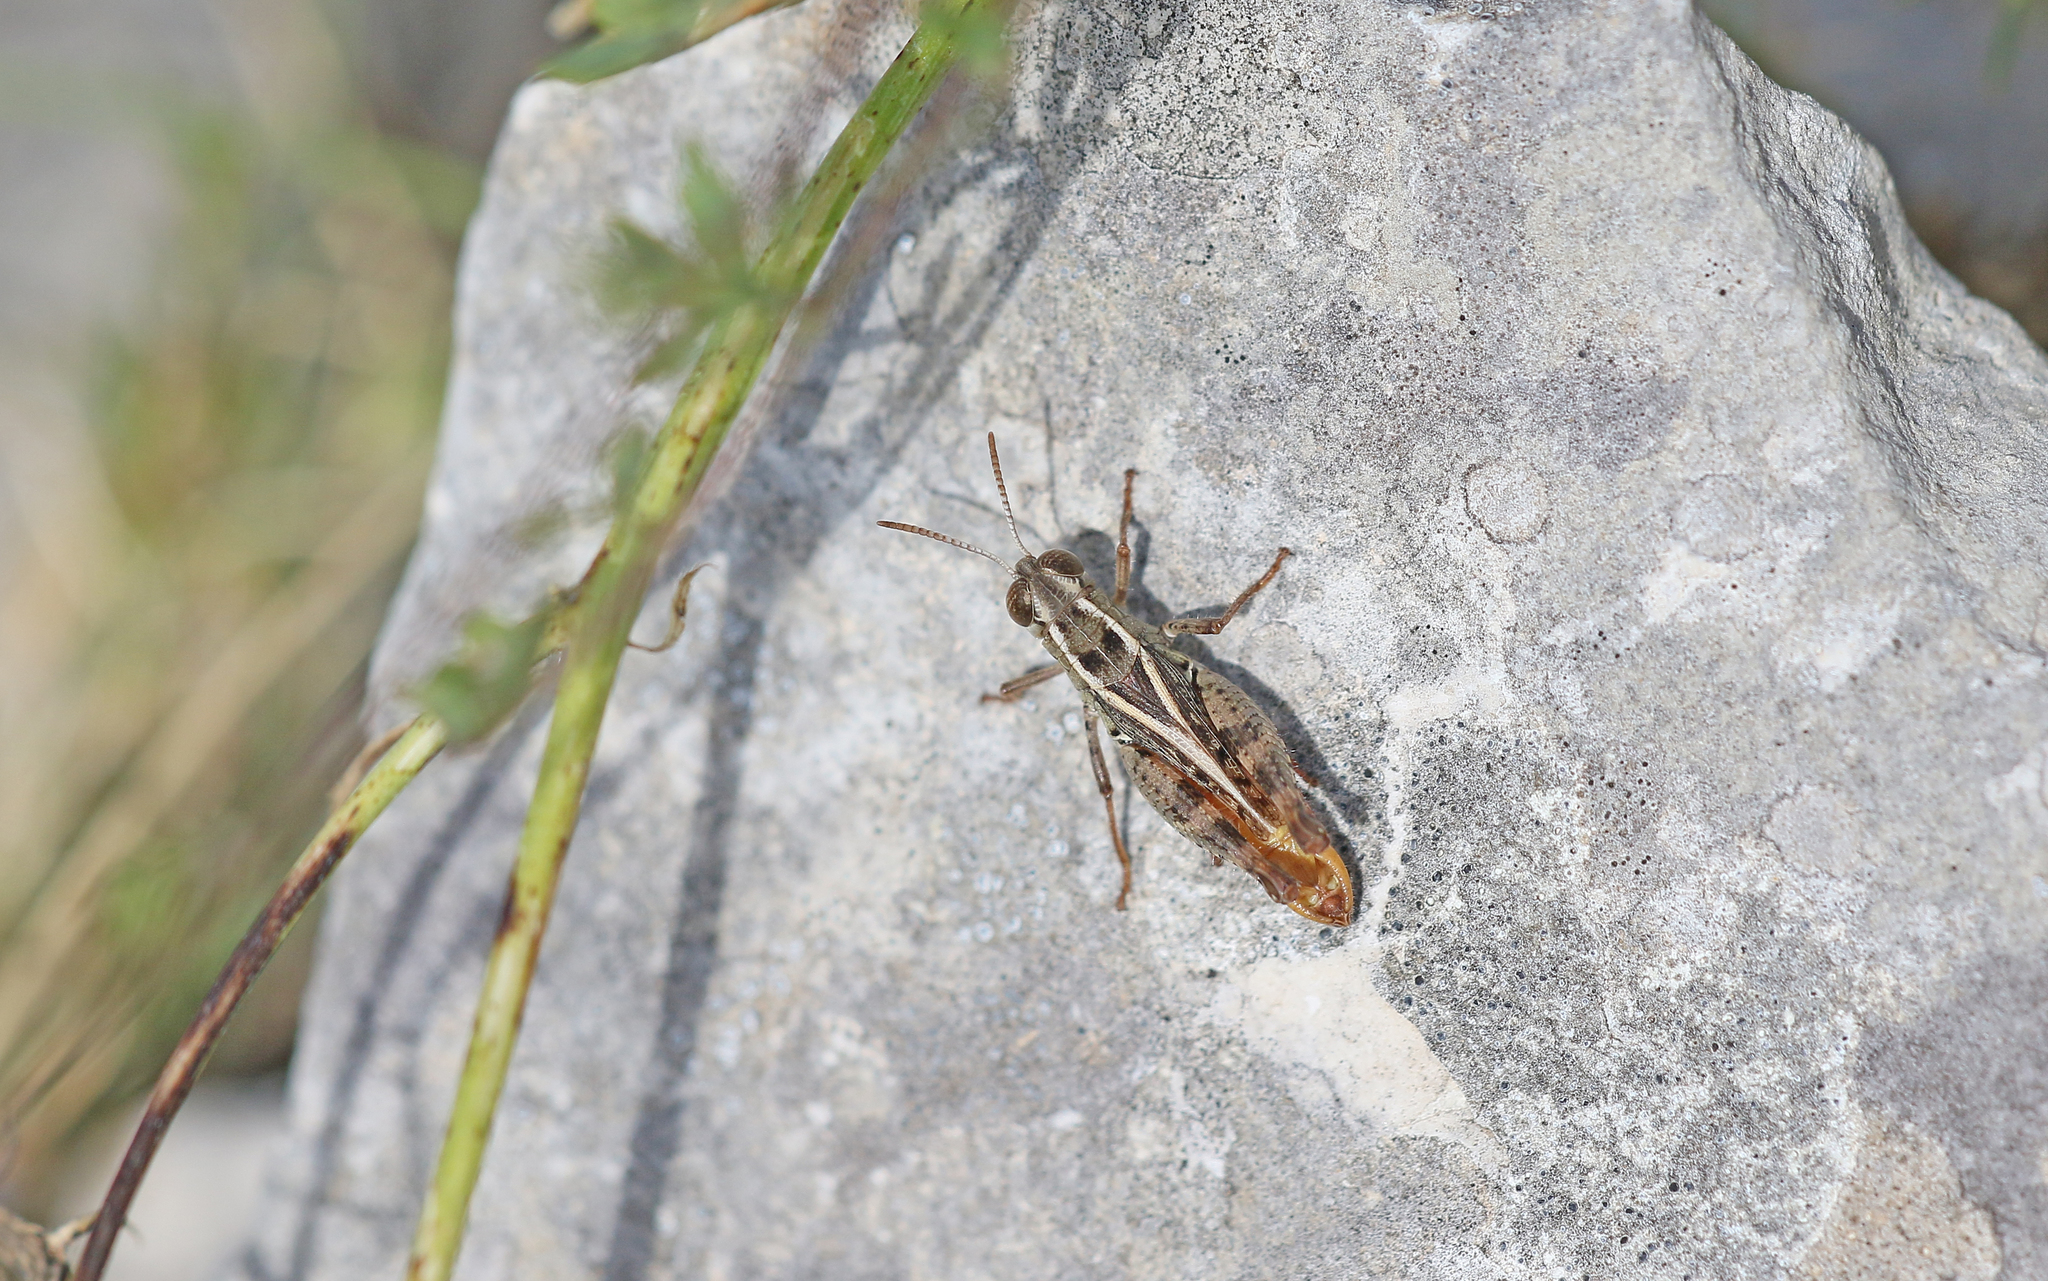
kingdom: Animalia
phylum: Arthropoda
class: Insecta
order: Orthoptera
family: Acrididae
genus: Calliptamus
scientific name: Calliptamus siciliae
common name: Pygmy pincer grasshopper
